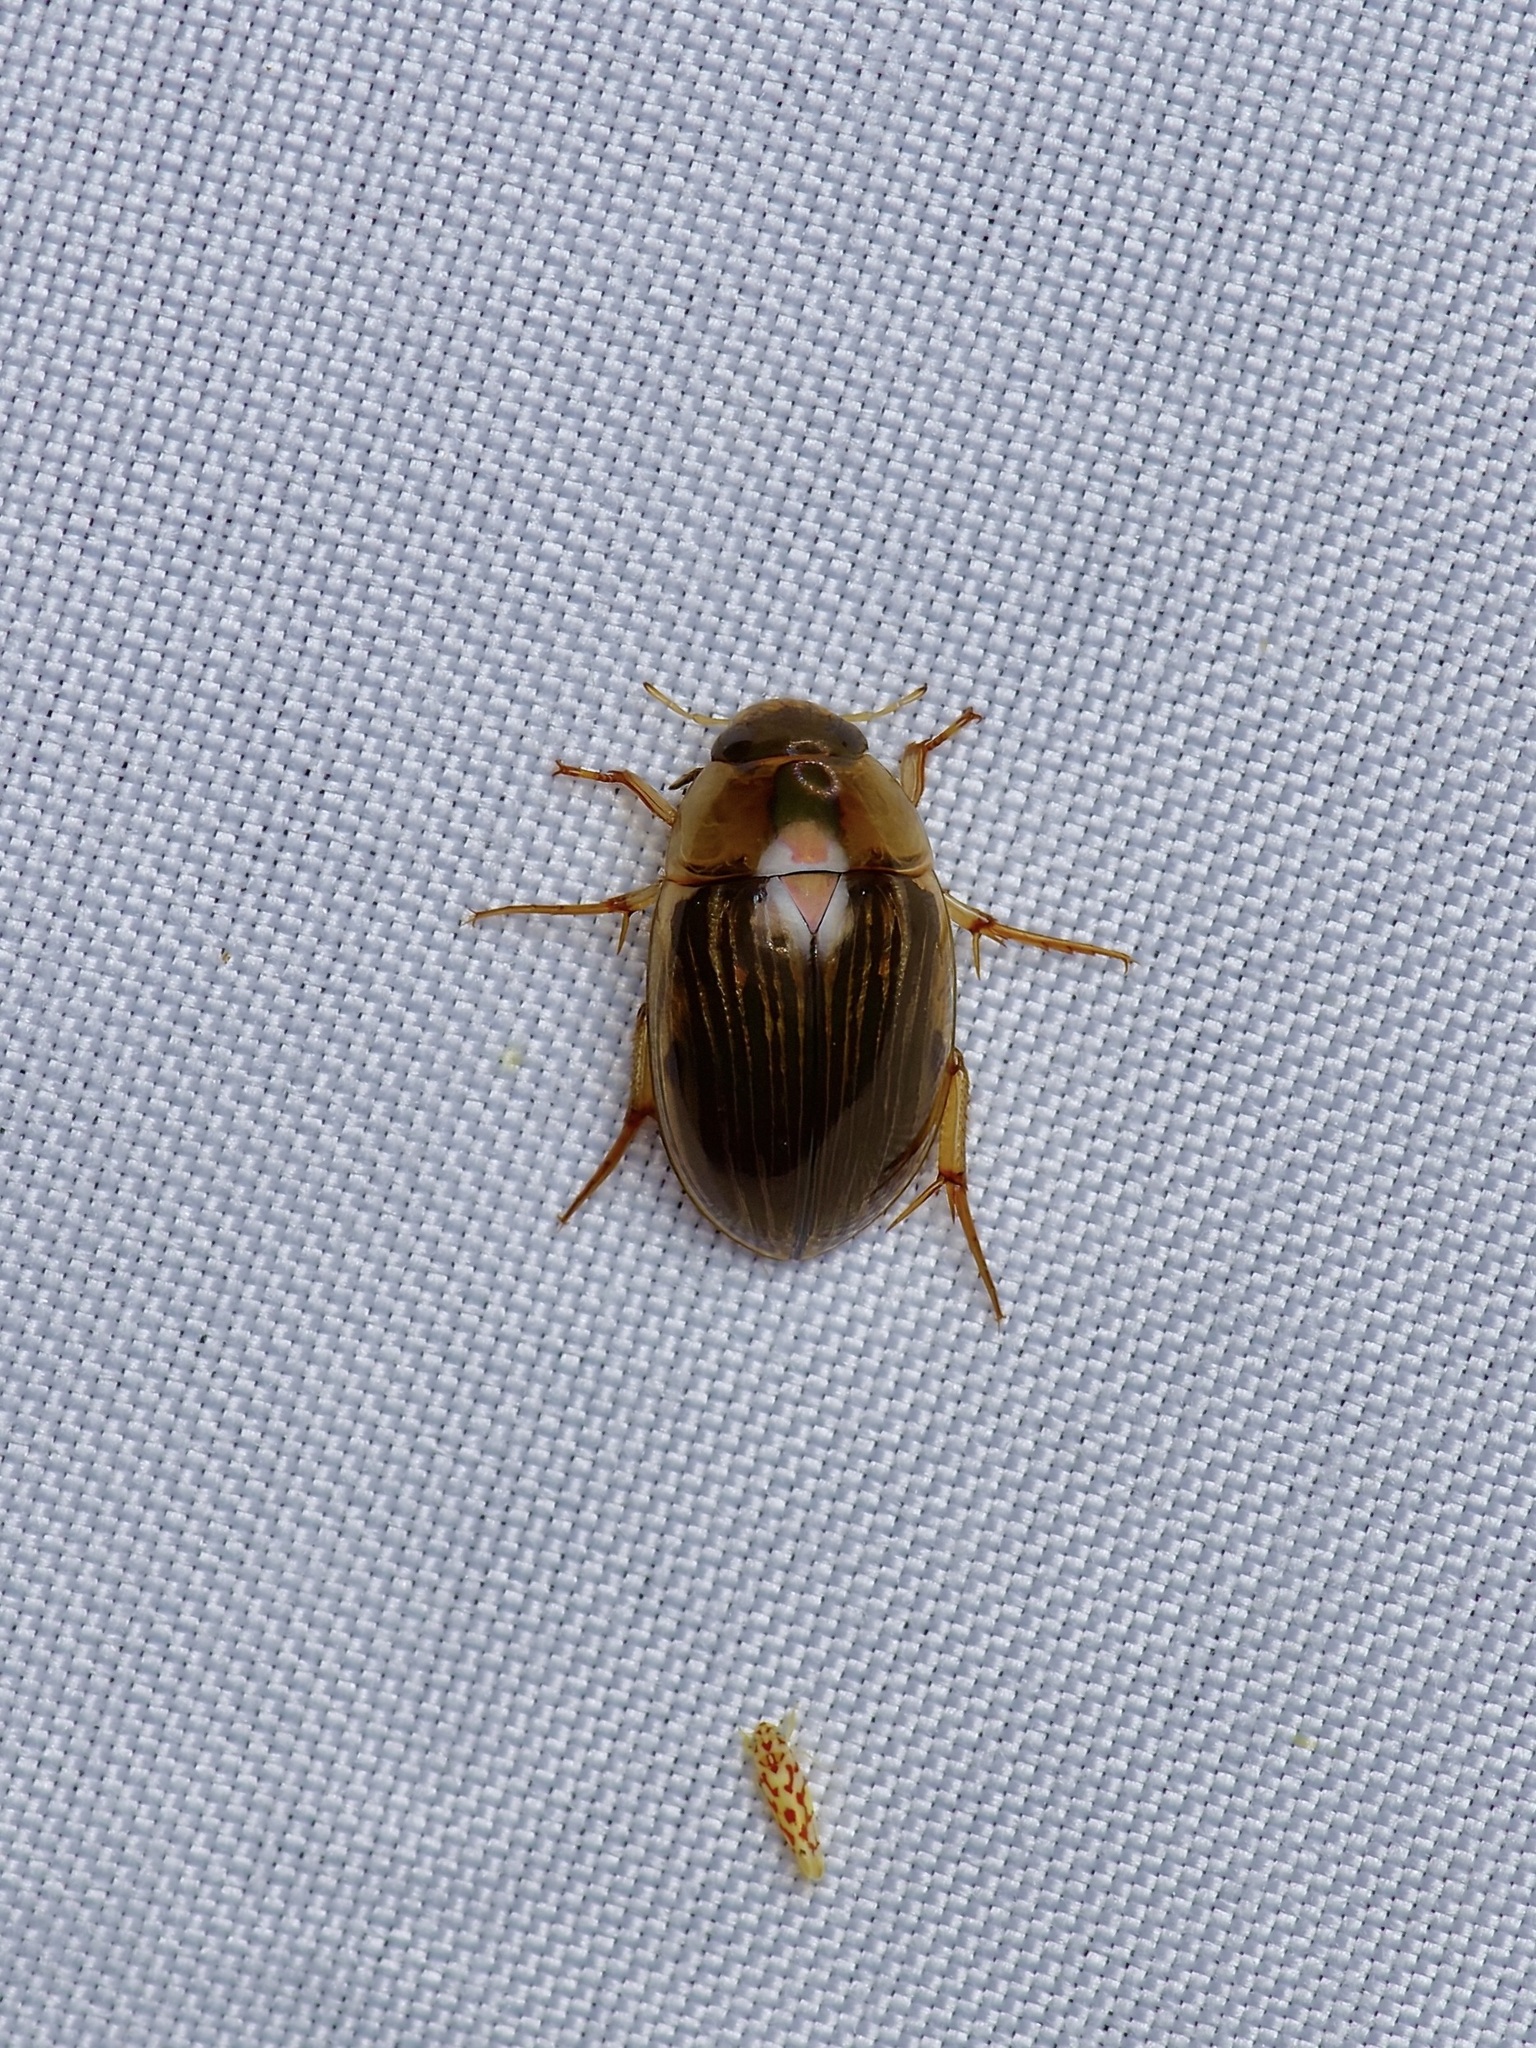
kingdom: Animalia
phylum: Arthropoda
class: Insecta
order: Coleoptera
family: Hydrophilidae
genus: Tropisternus
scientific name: Tropisternus collaris
